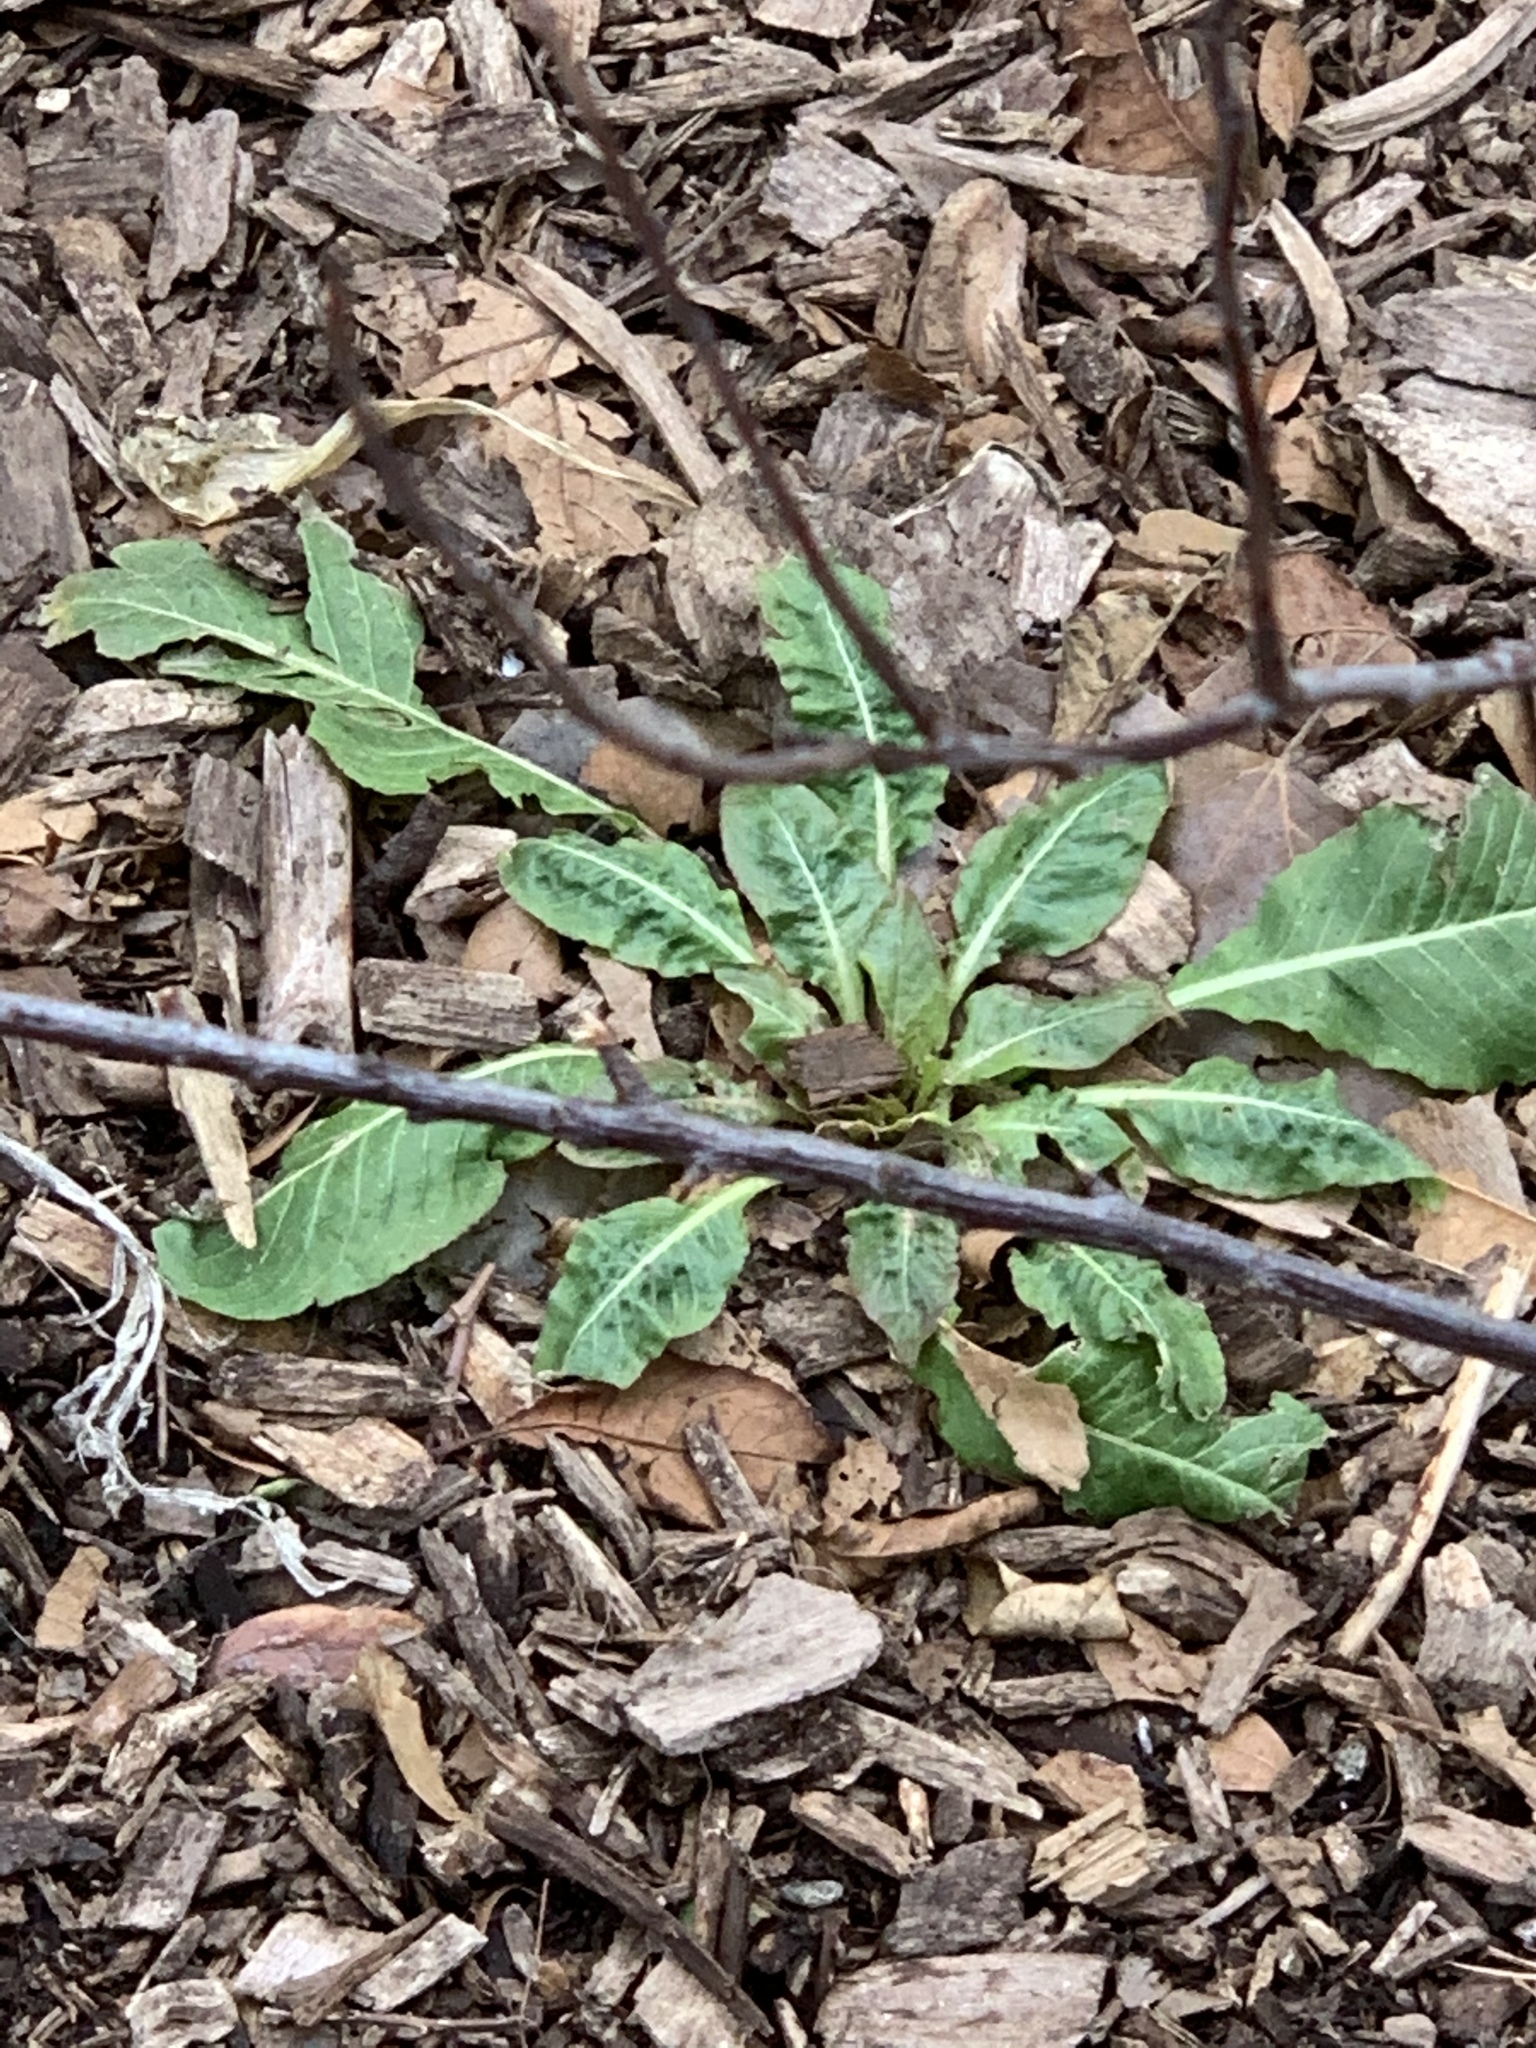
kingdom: Plantae
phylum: Tracheophyta
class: Magnoliopsida
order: Myrtales
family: Onagraceae
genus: Oenothera
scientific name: Oenothera biennis
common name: Common evening-primrose
